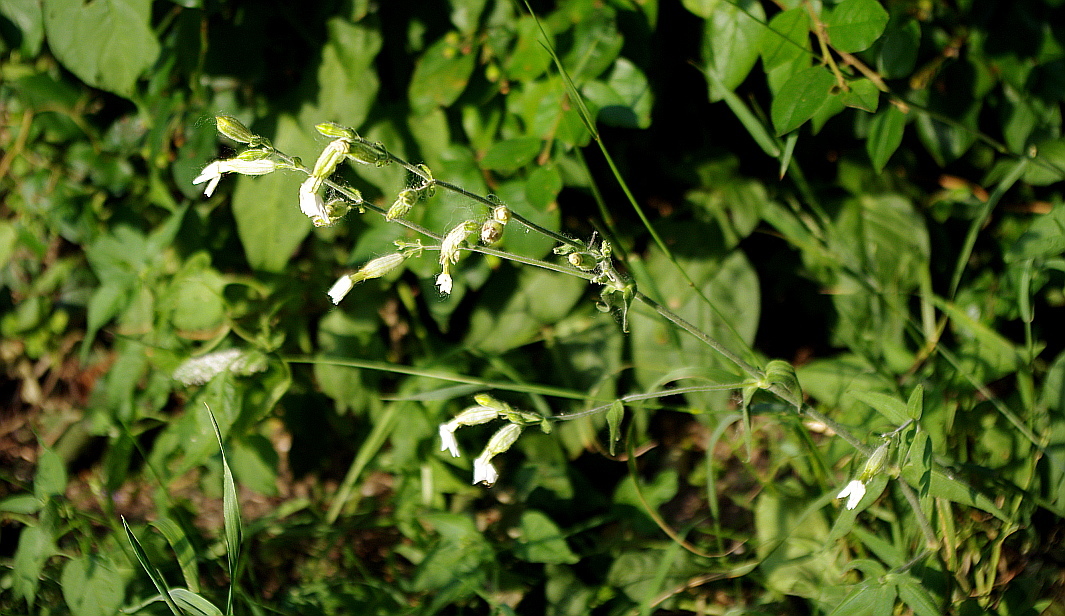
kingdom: Plantae
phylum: Tracheophyta
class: Magnoliopsida
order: Caryophyllales
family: Caryophyllaceae
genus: Silene
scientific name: Silene latifolia
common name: White campion
